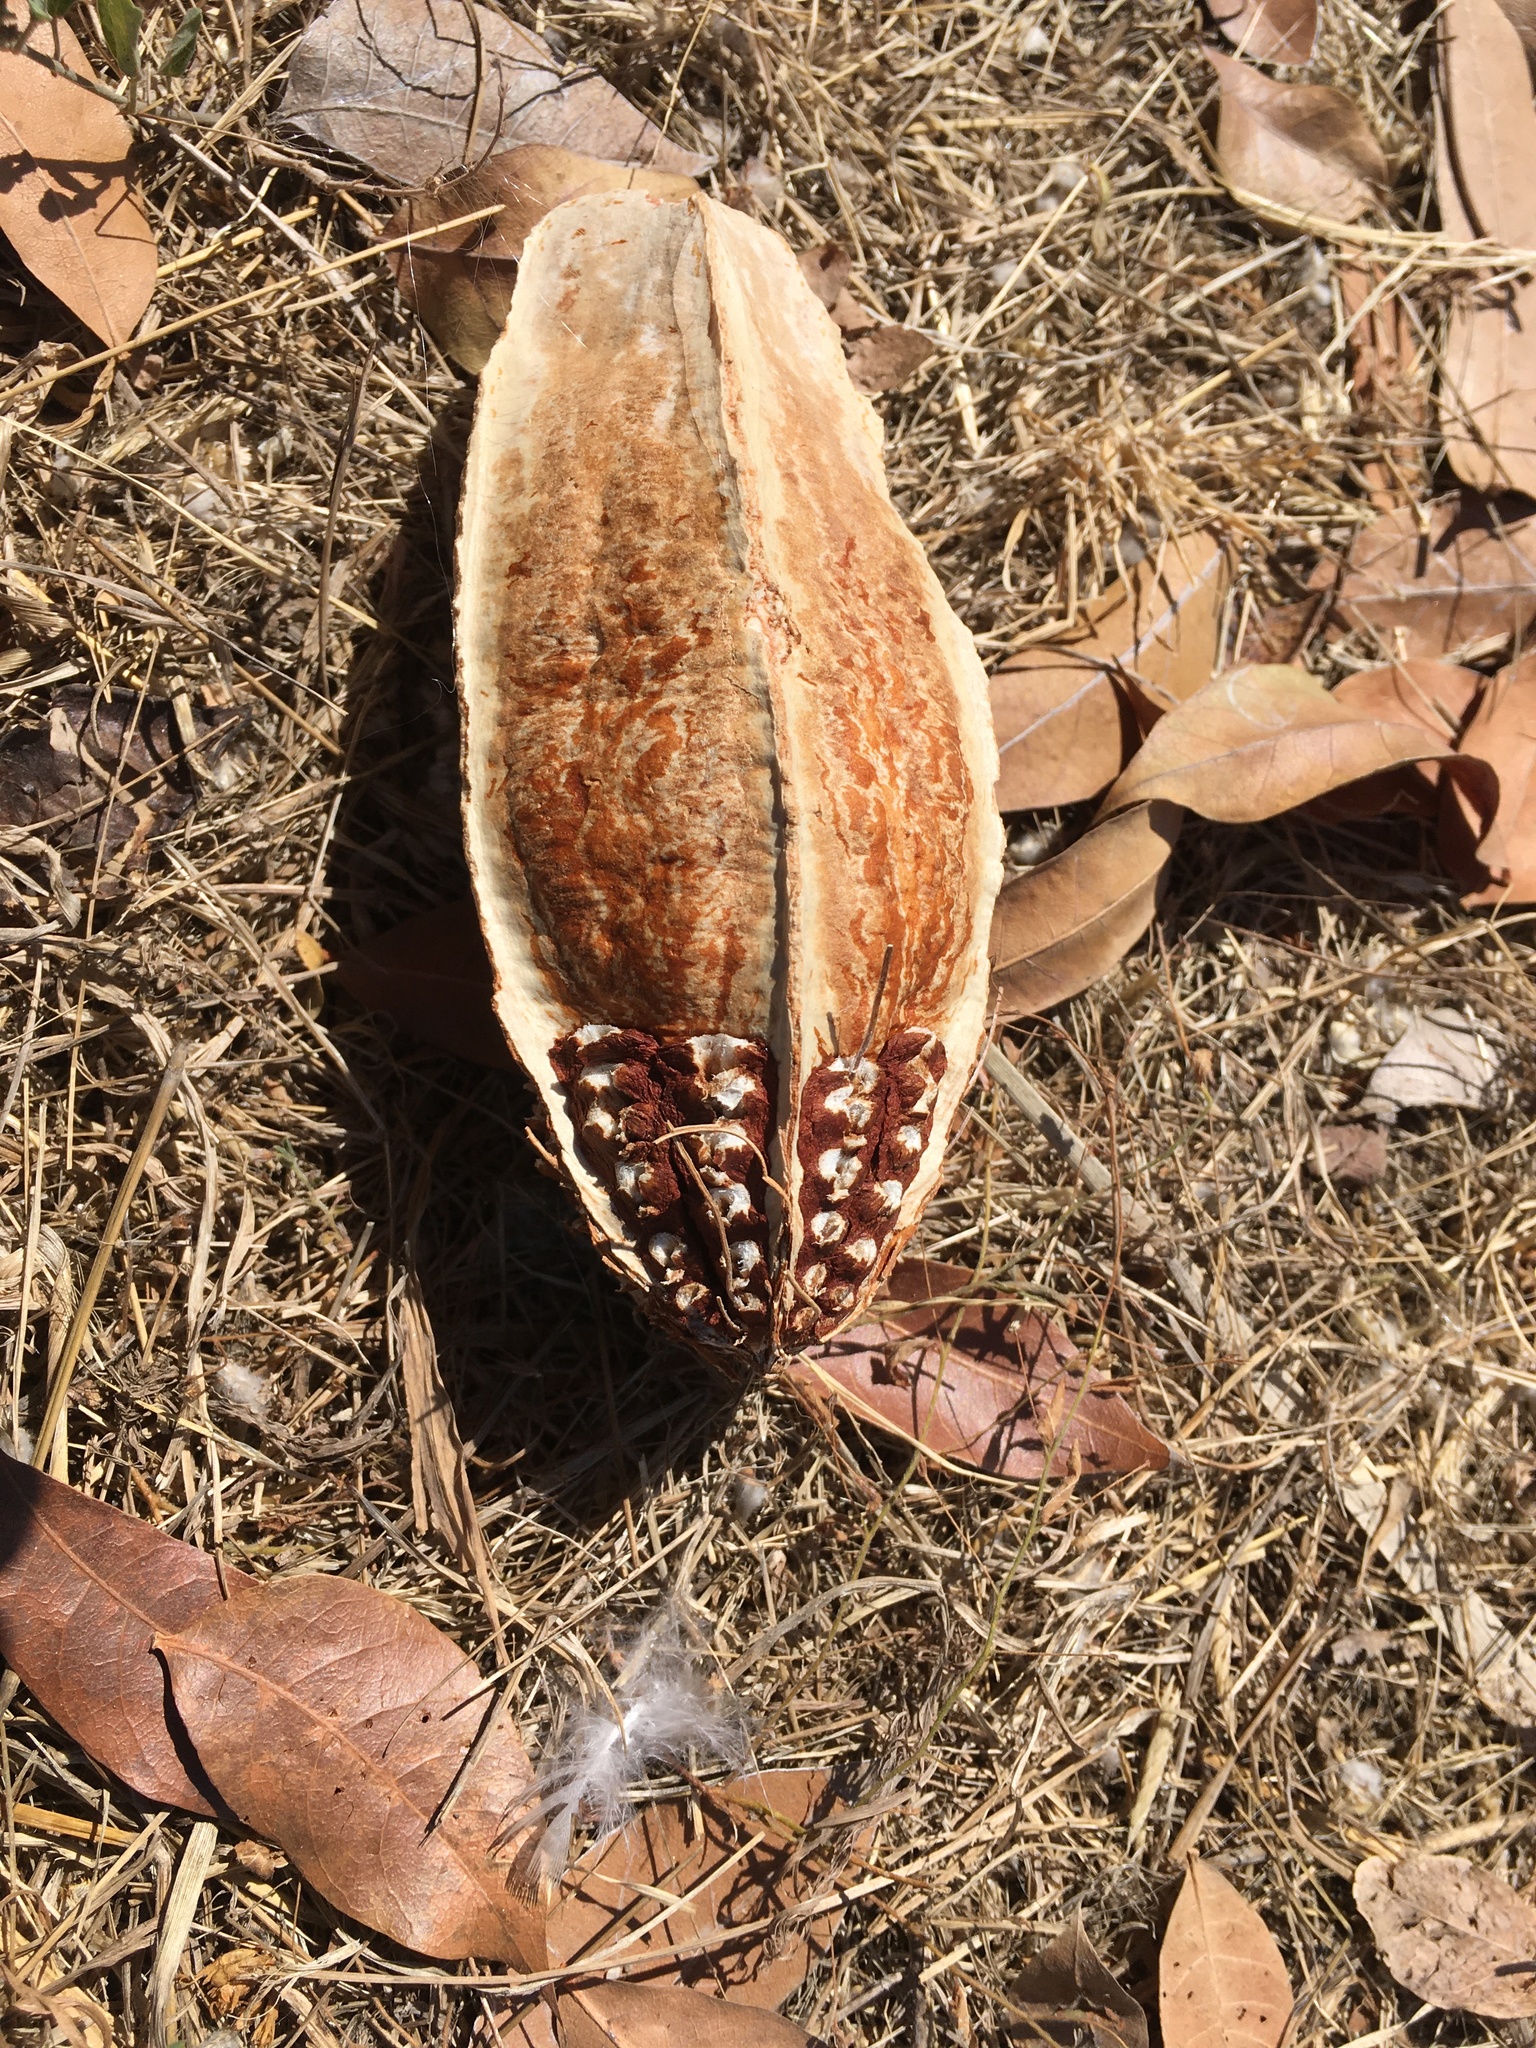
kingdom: Plantae
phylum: Tracheophyta
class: Magnoliopsida
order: Sapindales
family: Meliaceae
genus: Swietenia
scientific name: Swietenia macrophylla
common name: Honduras mahogany
